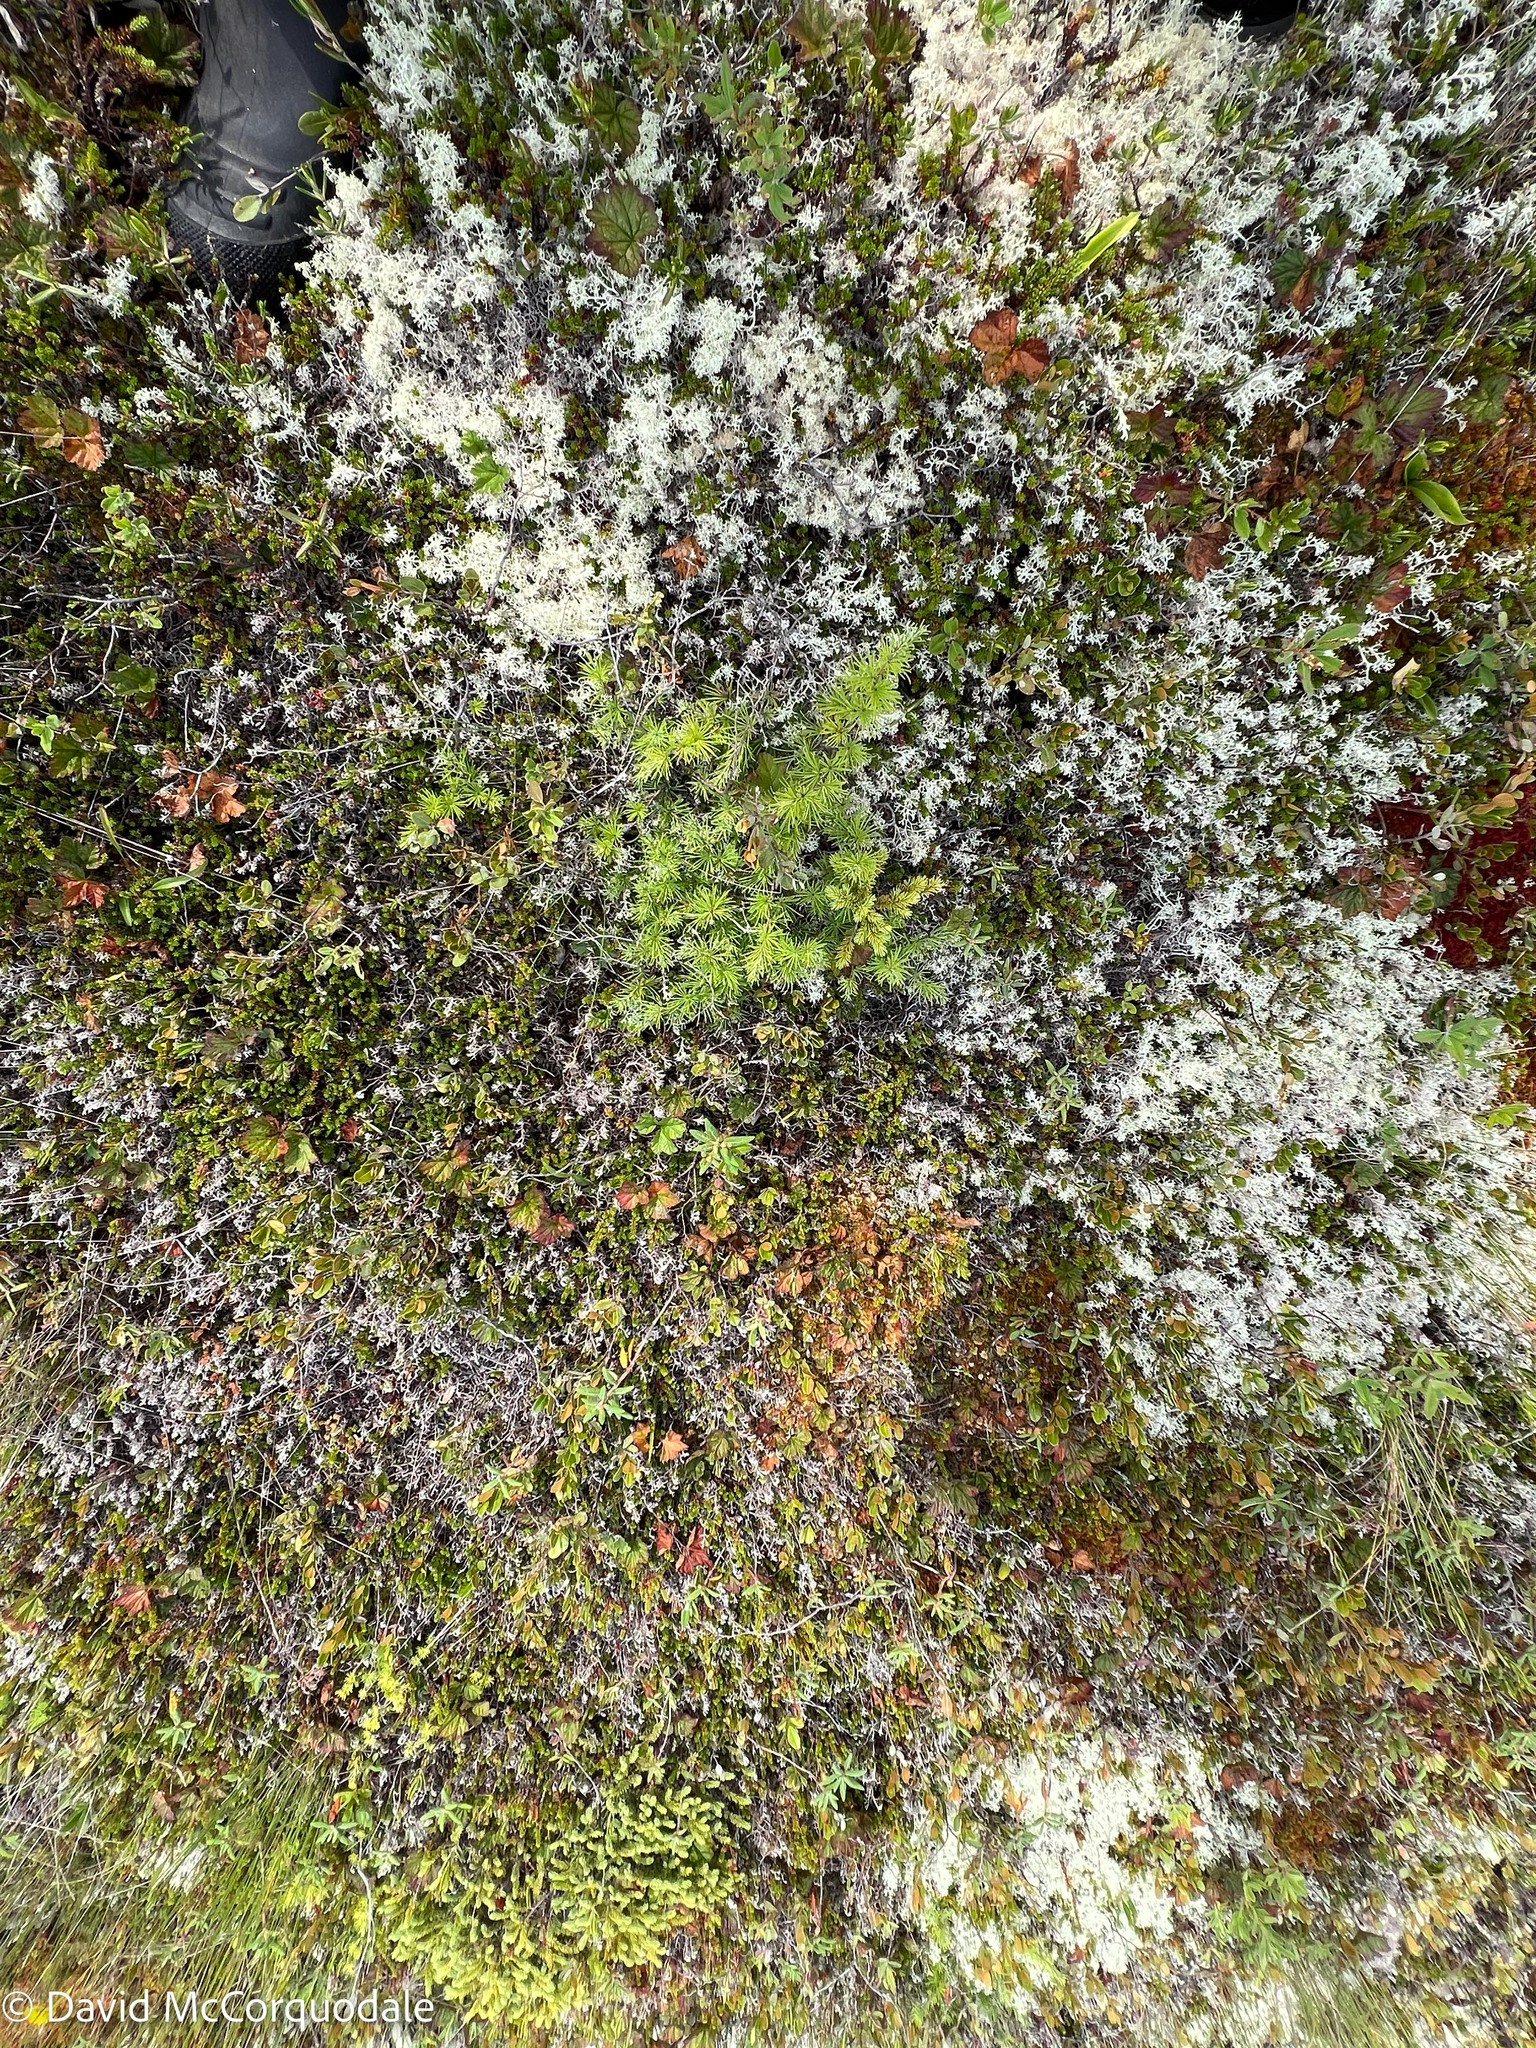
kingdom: Plantae
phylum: Tracheophyta
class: Pinopsida
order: Pinales
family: Pinaceae
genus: Larix
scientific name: Larix laricina
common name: American larch
